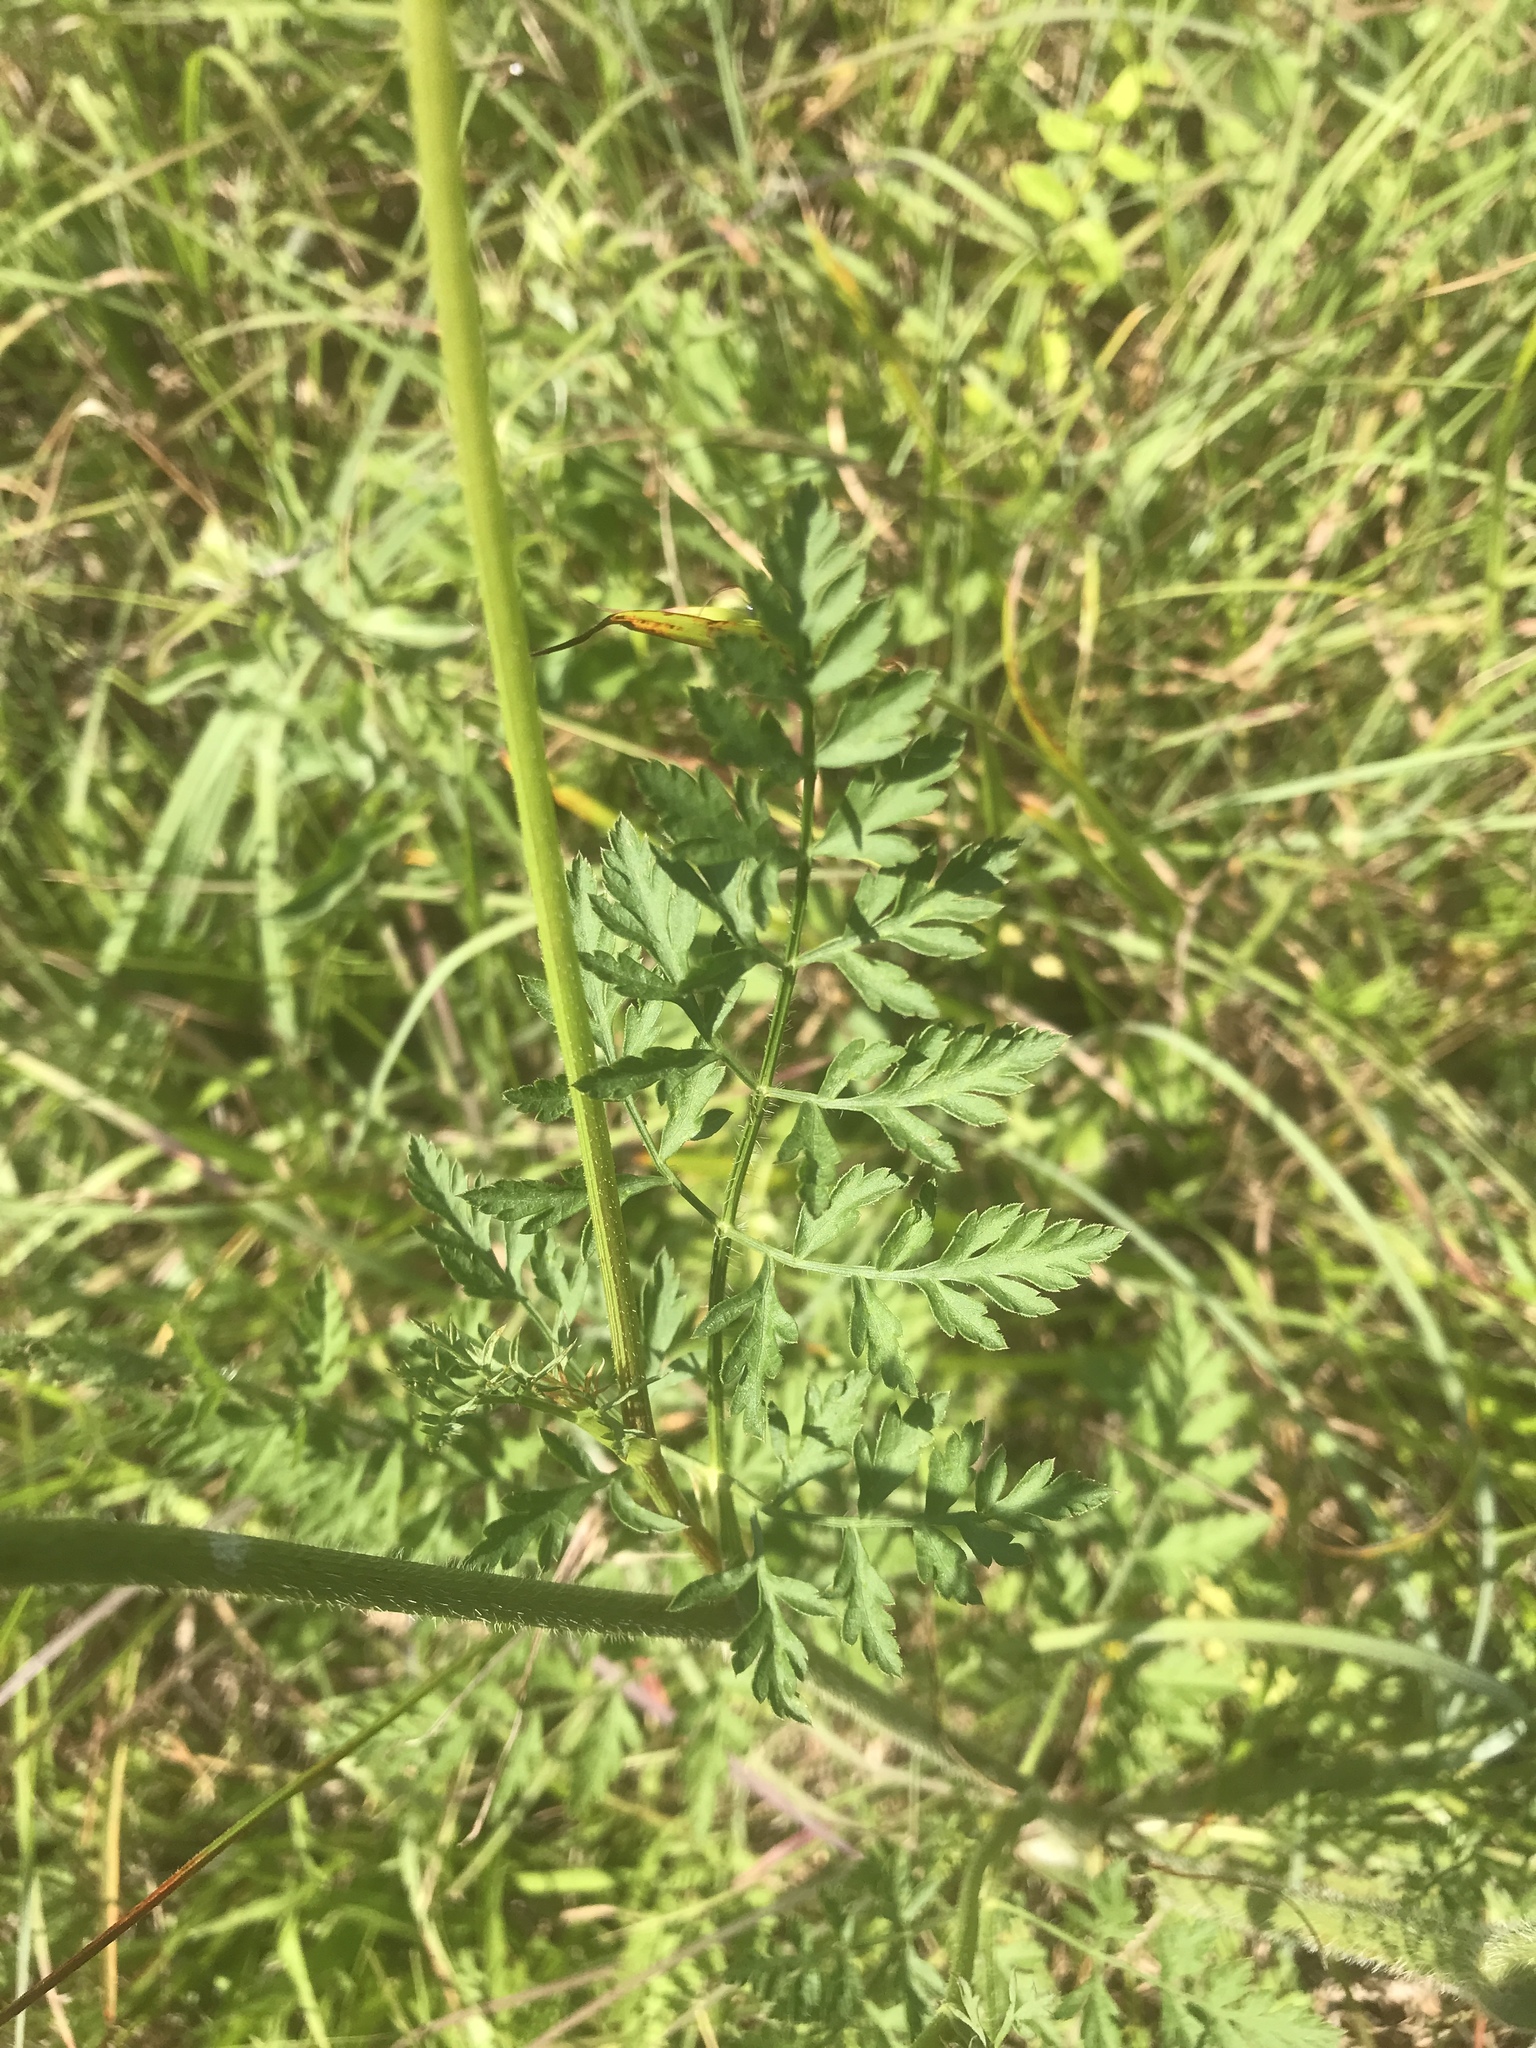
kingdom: Plantae
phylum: Tracheophyta
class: Magnoliopsida
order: Apiales
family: Apiaceae
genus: Daucus
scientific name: Daucus carota
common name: Wild carrot
